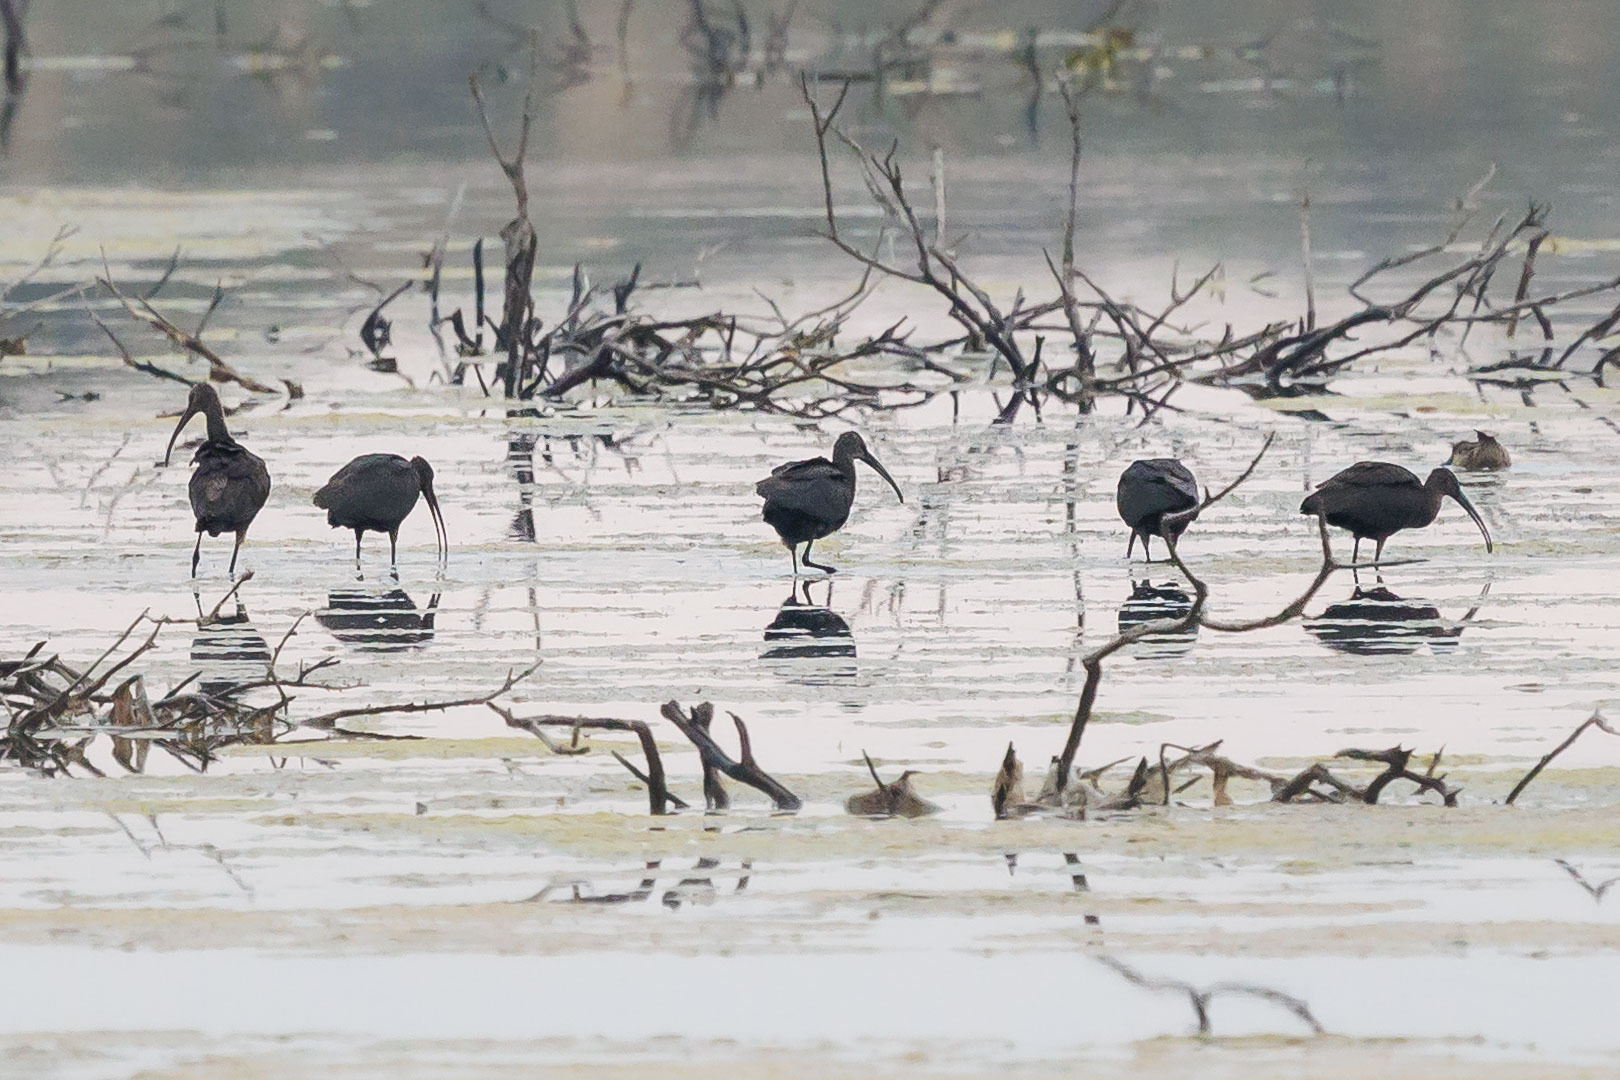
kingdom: Animalia
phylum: Chordata
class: Aves
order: Pelecaniformes
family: Threskiornithidae
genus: Plegadis
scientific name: Plegadis falcinellus
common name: Glossy ibis
